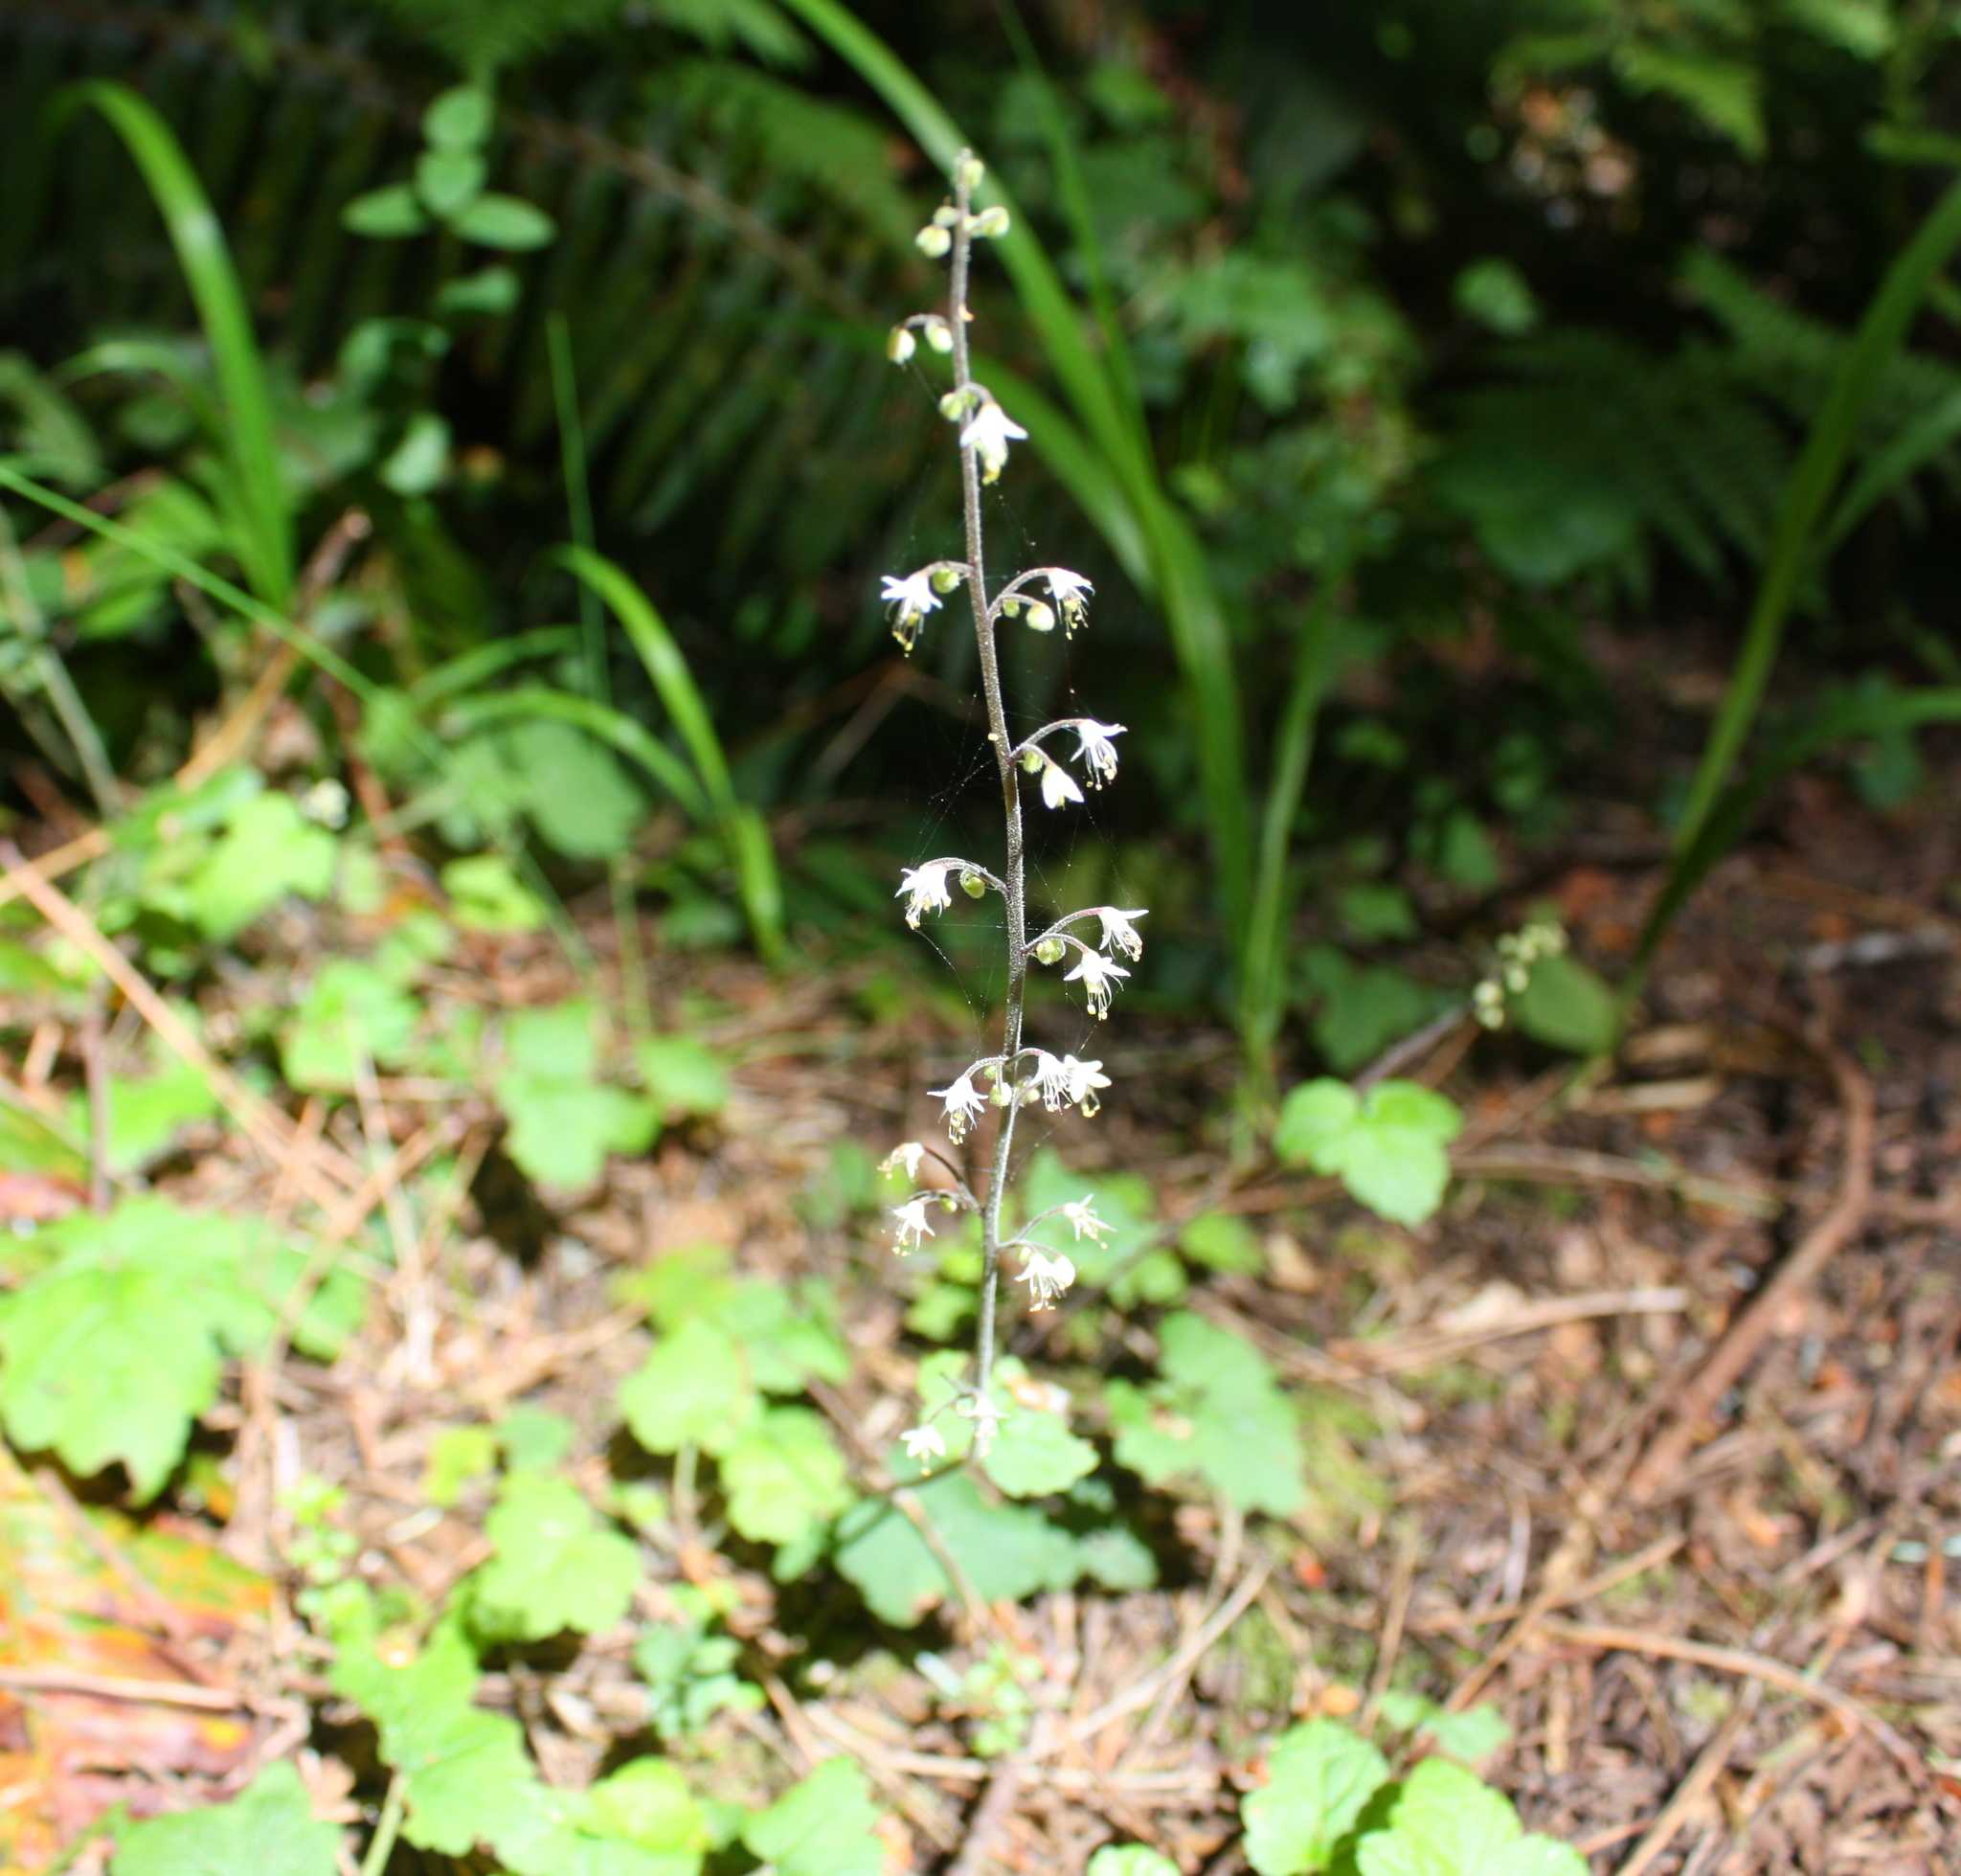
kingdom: Plantae
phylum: Tracheophyta
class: Magnoliopsida
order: Saxifragales
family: Saxifragaceae
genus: Tiarella
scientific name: Tiarella trifoliata
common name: Sugar-scoop
